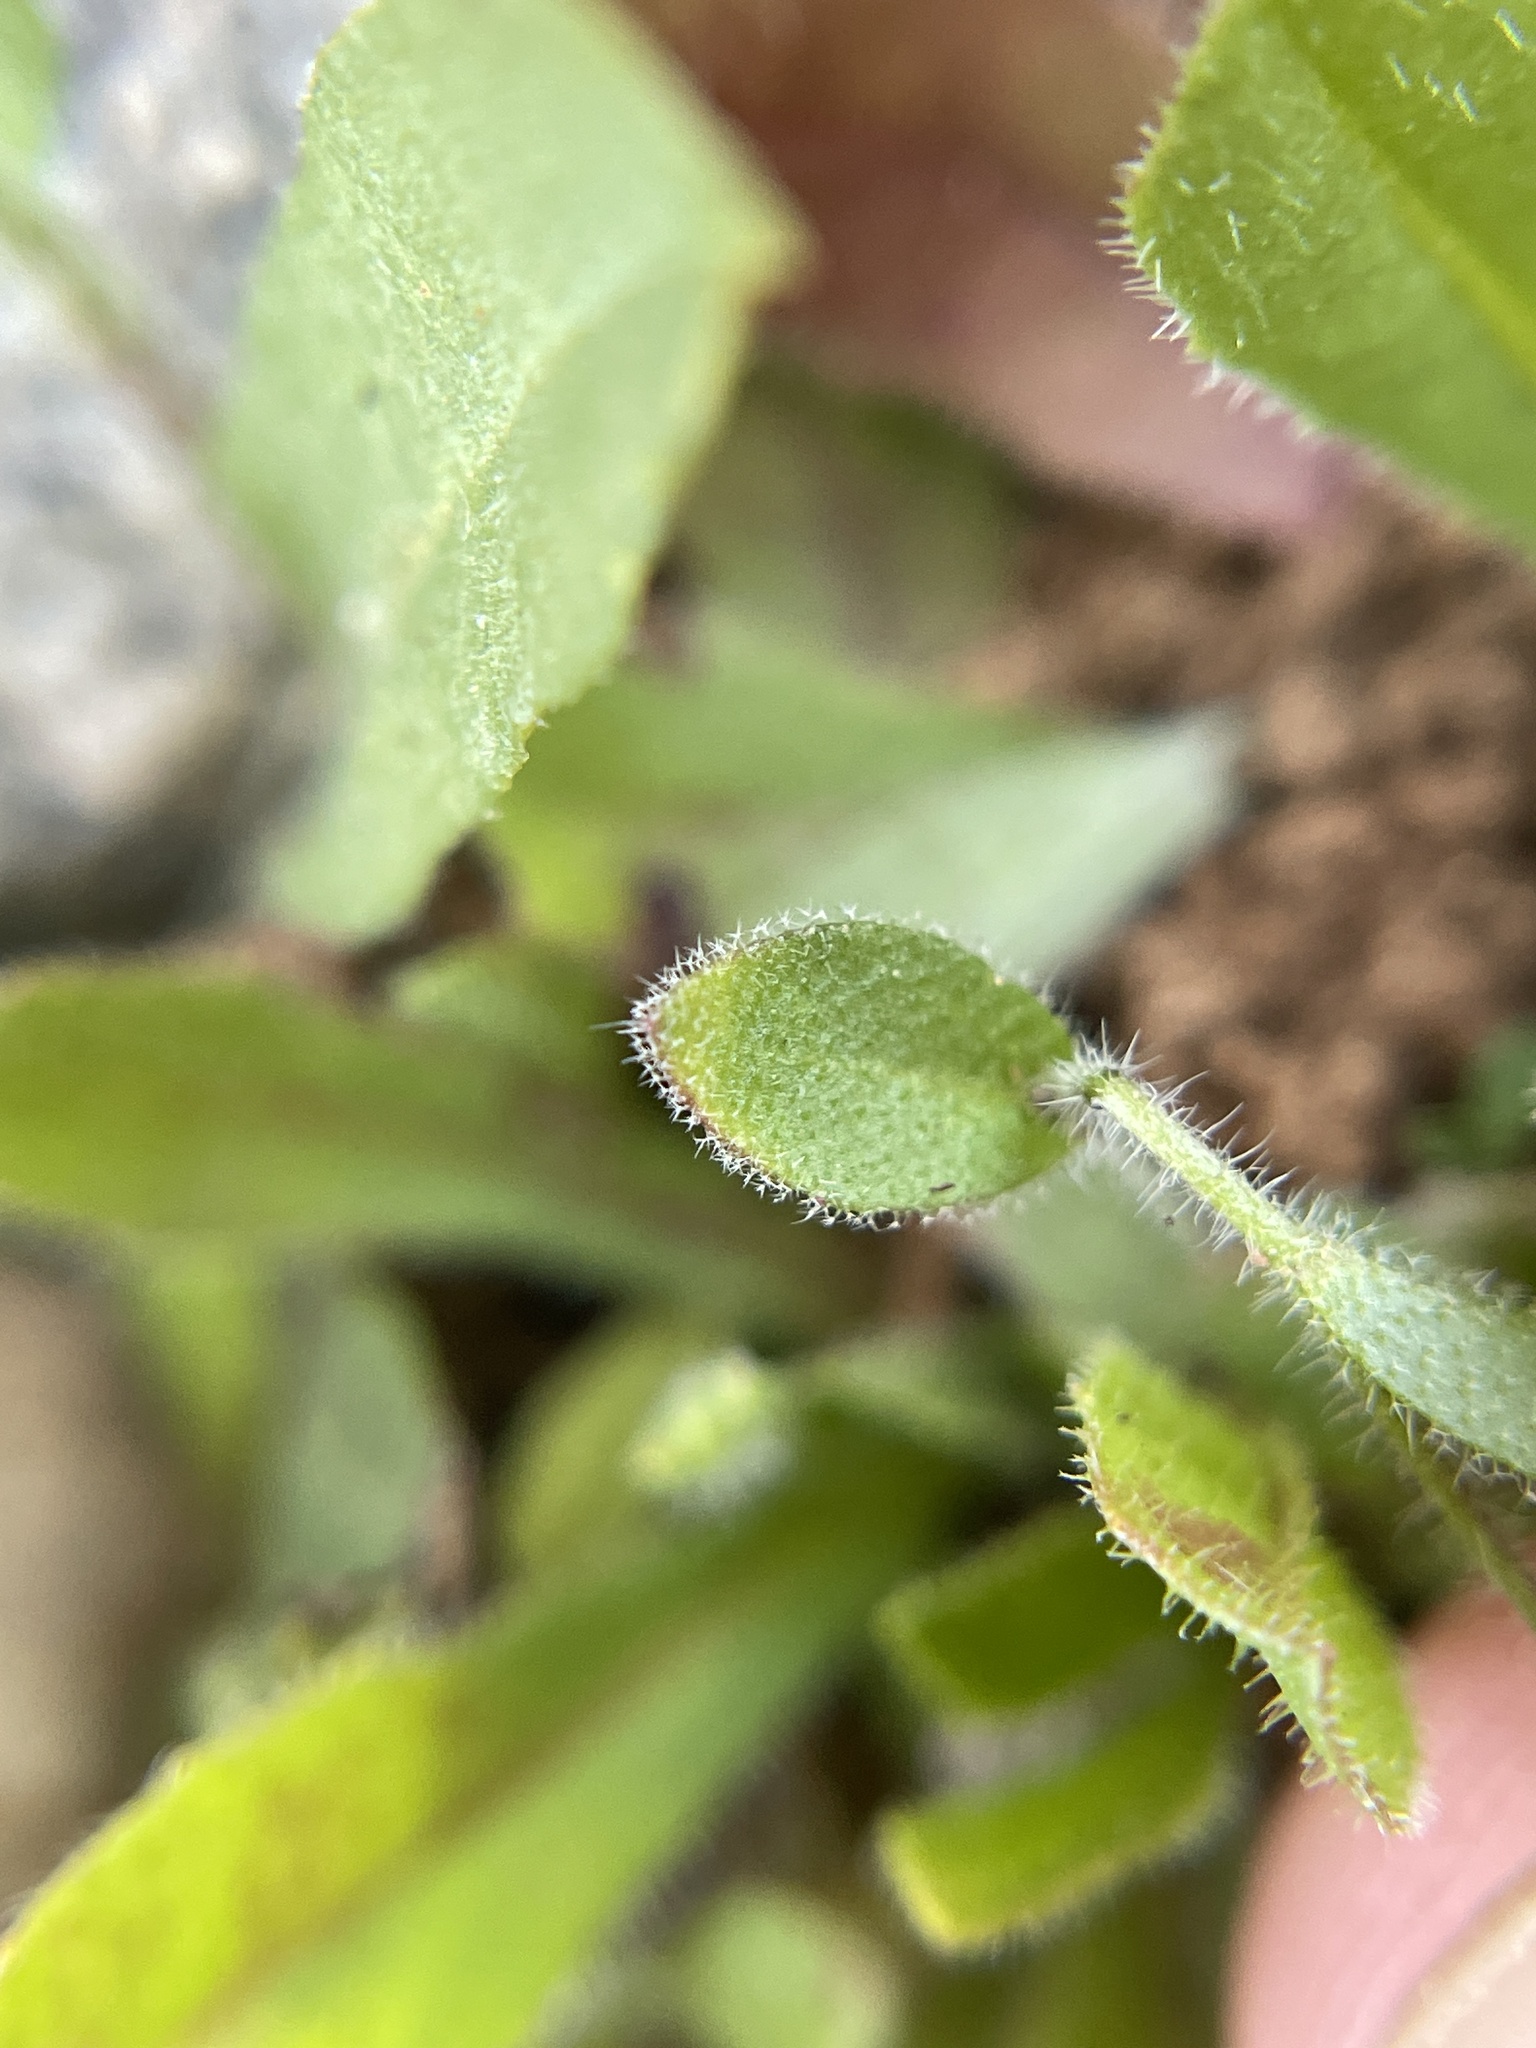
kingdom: Plantae
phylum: Tracheophyta
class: Magnoliopsida
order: Brassicales
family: Brassicaceae
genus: Tomostima
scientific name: Tomostima platycarpa
